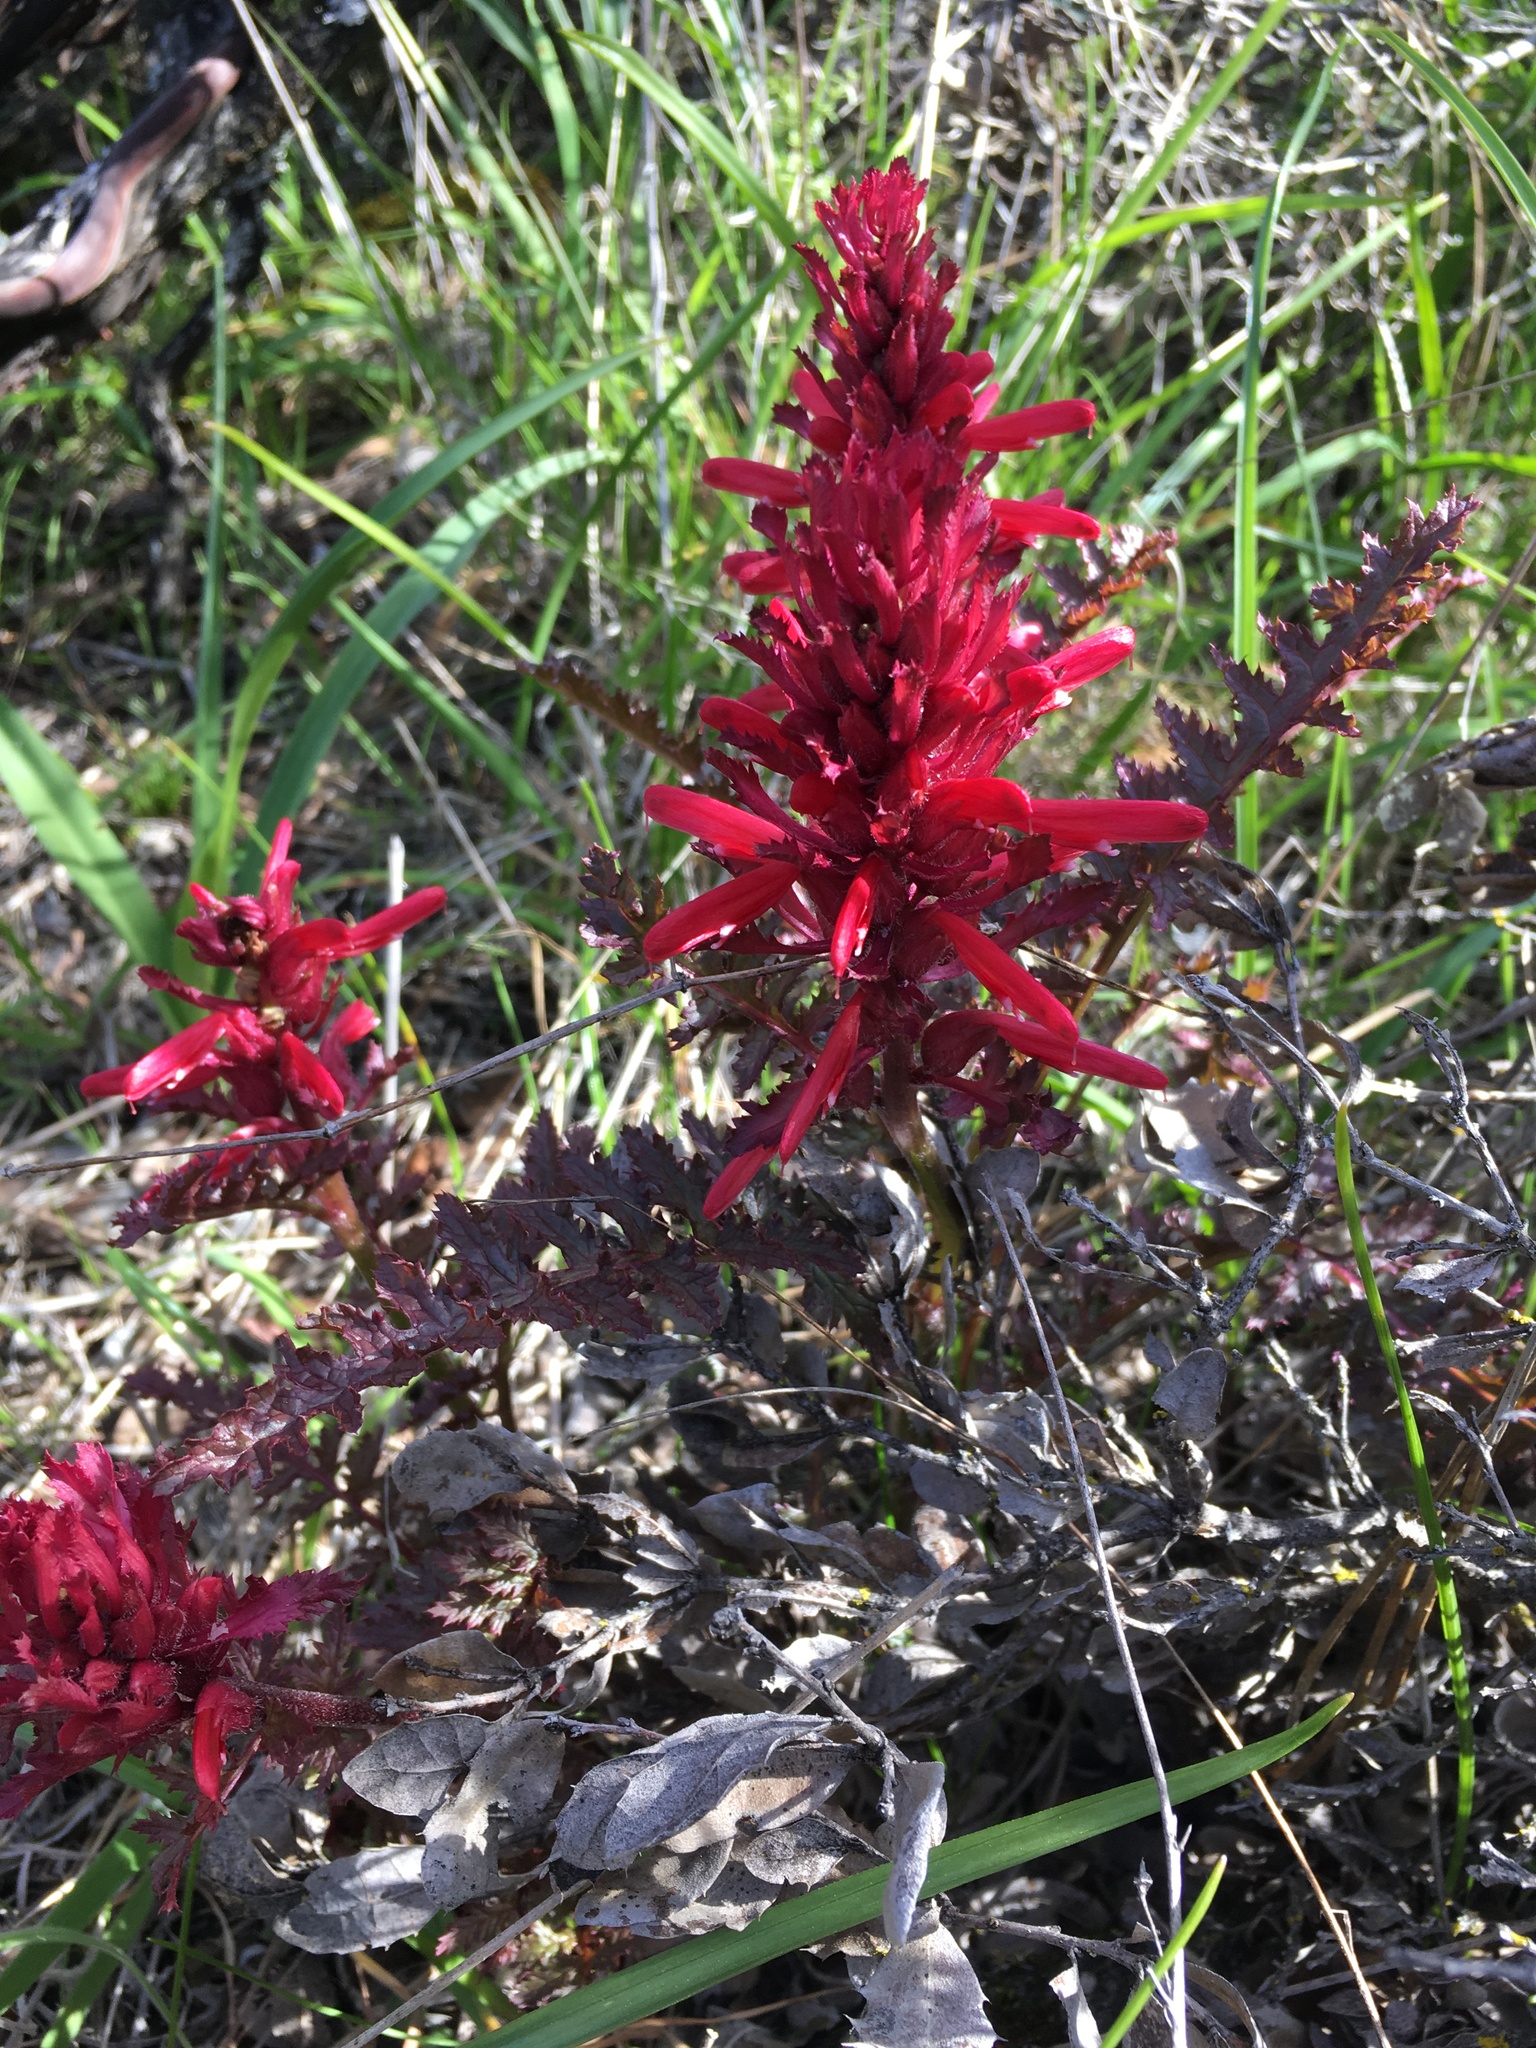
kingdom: Plantae
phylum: Tracheophyta
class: Magnoliopsida
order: Lamiales
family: Orobanchaceae
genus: Pedicularis
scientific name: Pedicularis densiflora
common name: Indian warrior
